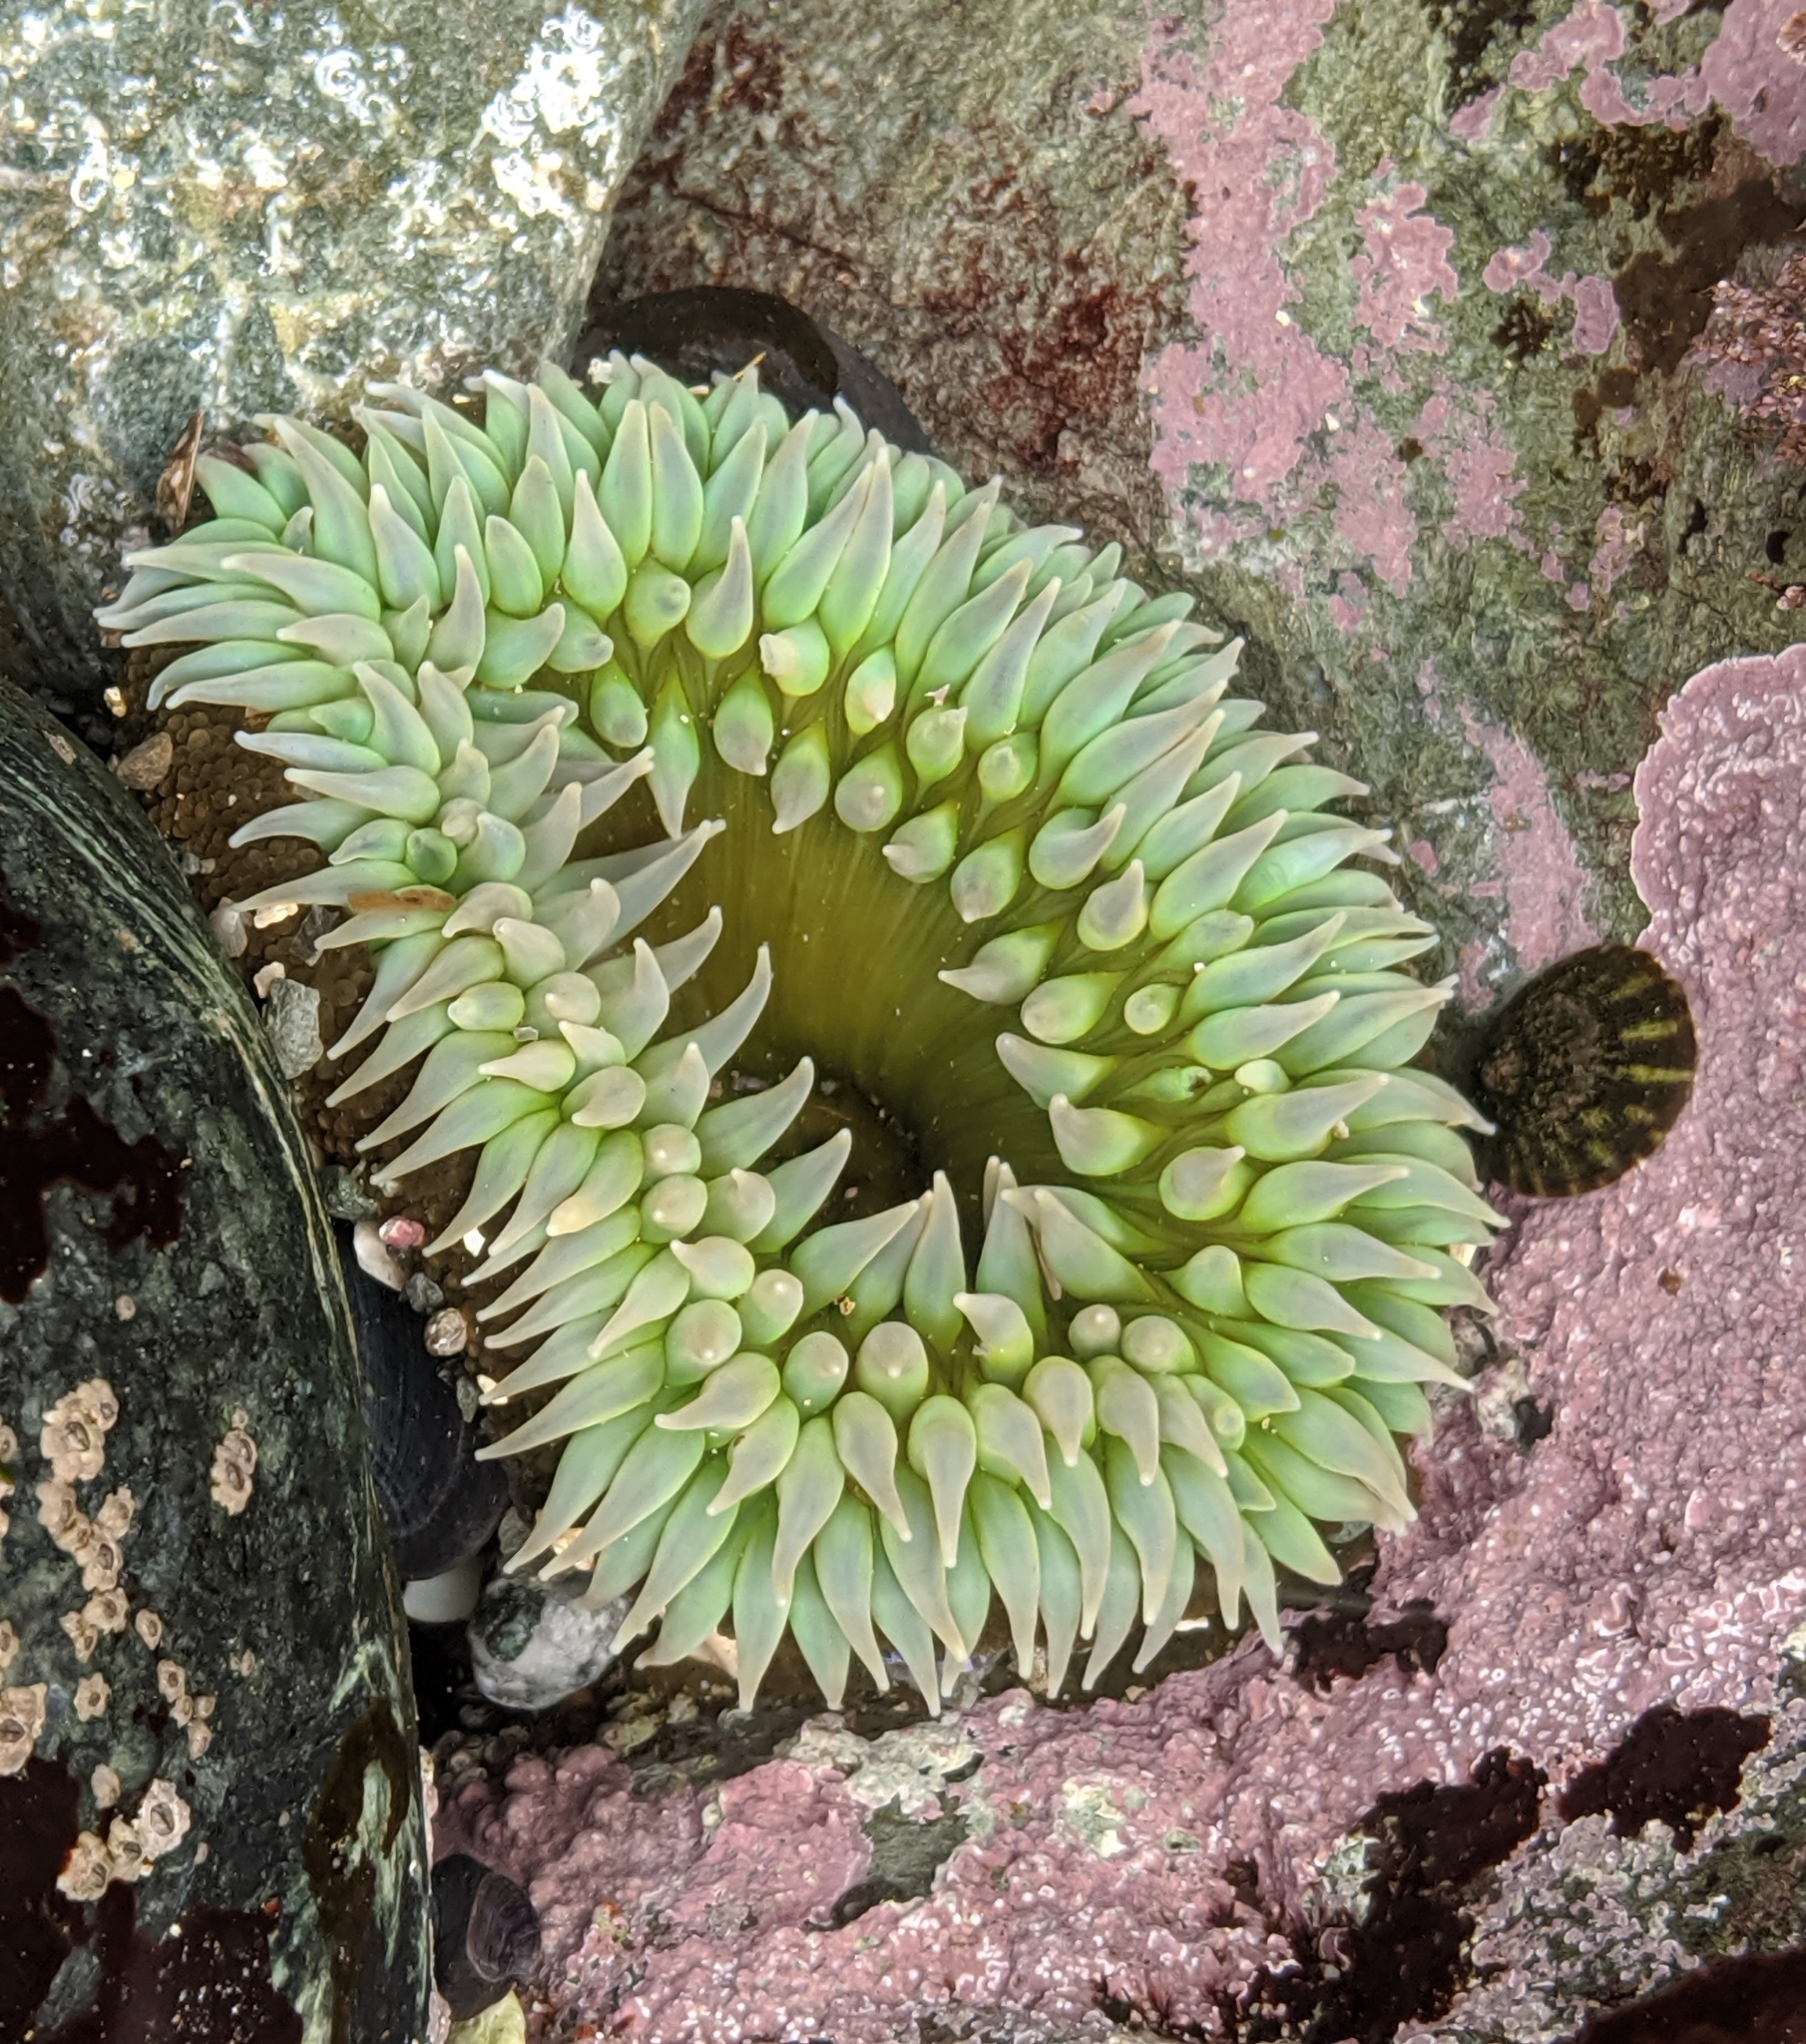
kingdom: Animalia
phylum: Cnidaria
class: Anthozoa
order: Actiniaria
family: Actiniidae
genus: Anthopleura
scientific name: Anthopleura xanthogrammica
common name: Giant green anemone
